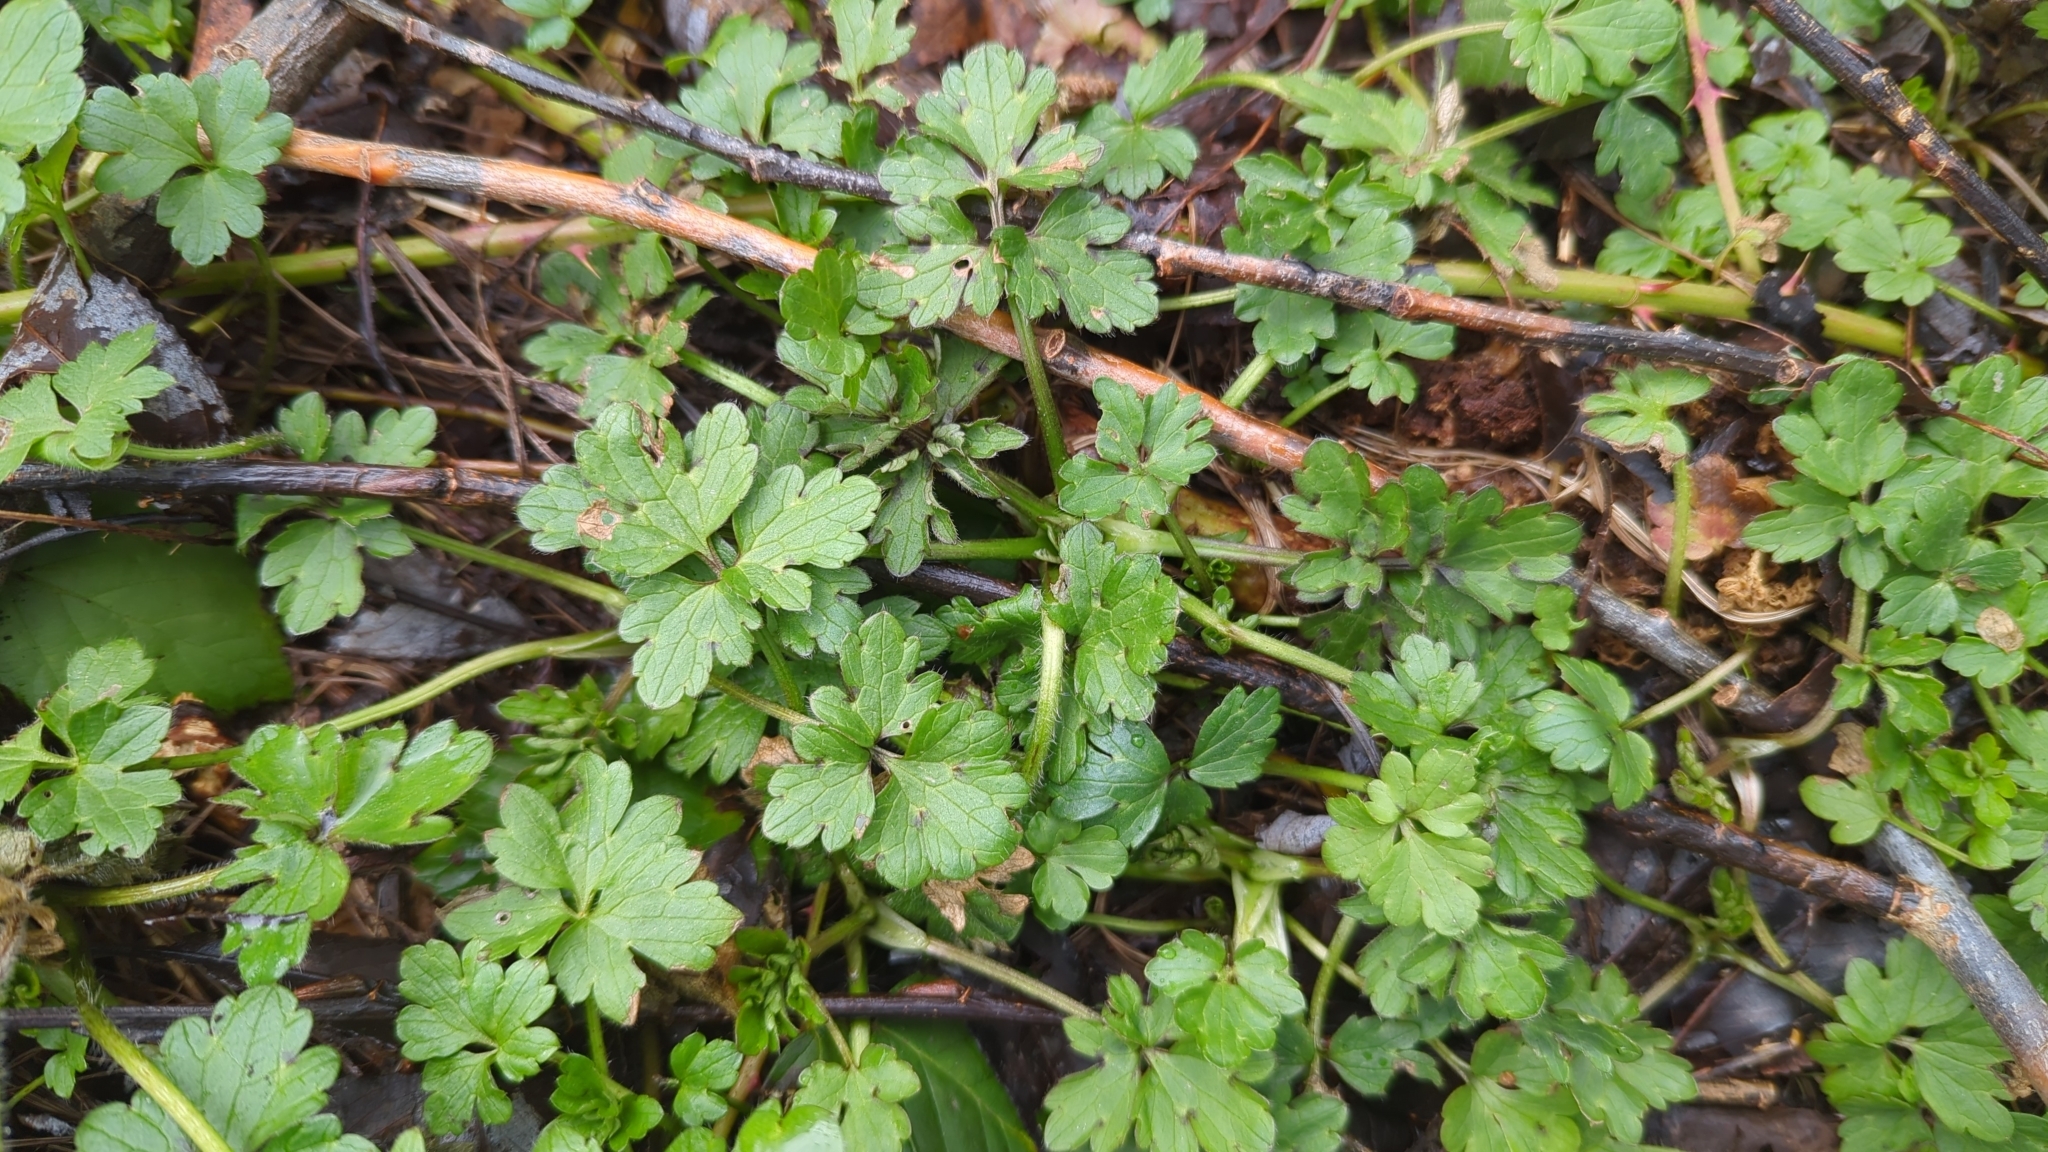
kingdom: Plantae
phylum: Tracheophyta
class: Magnoliopsida
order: Ranunculales
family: Ranunculaceae
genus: Ranunculus
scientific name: Ranunculus repens
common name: Creeping buttercup
